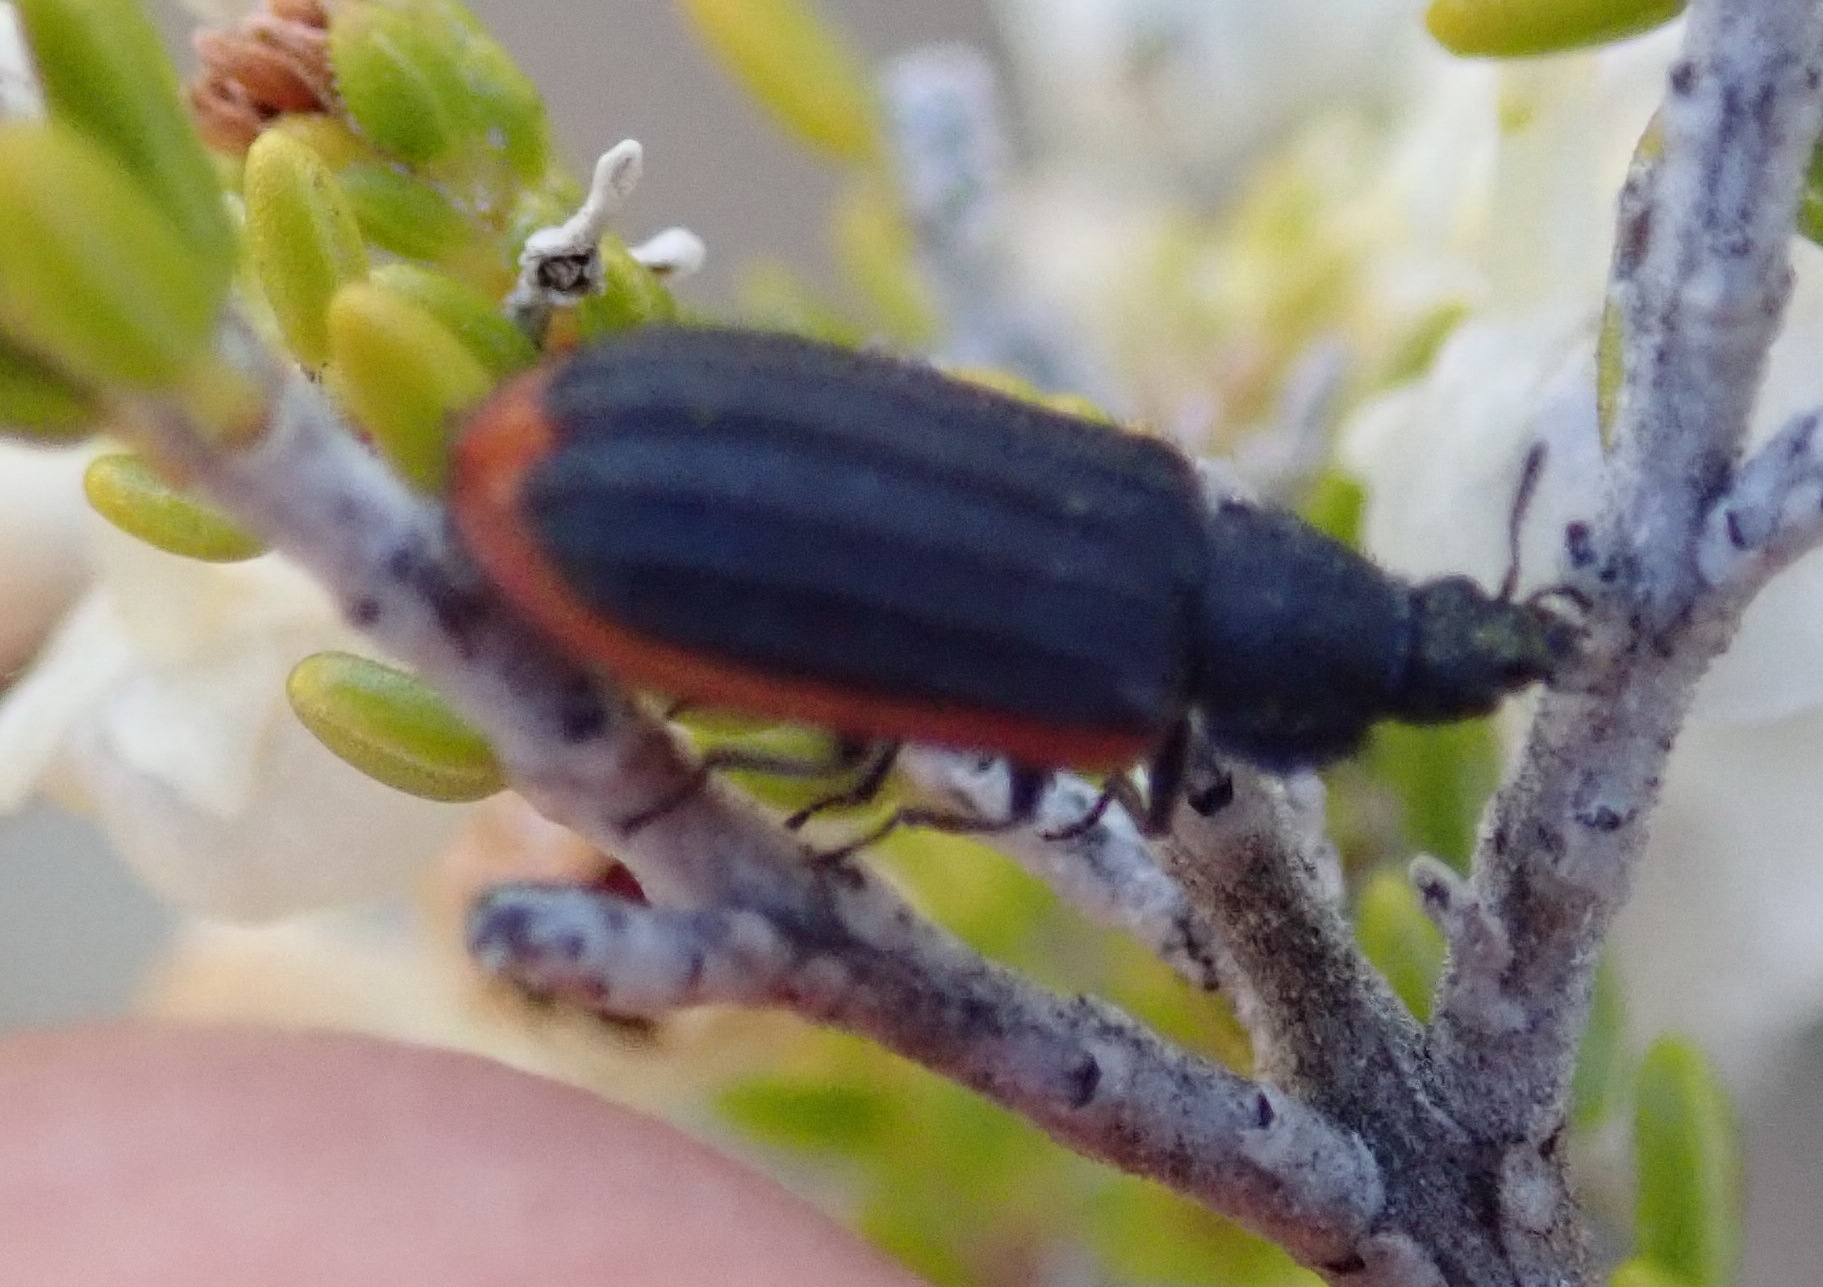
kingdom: Animalia
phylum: Arthropoda
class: Insecta
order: Coleoptera
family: Melyridae
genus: Melyris
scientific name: Melyris
